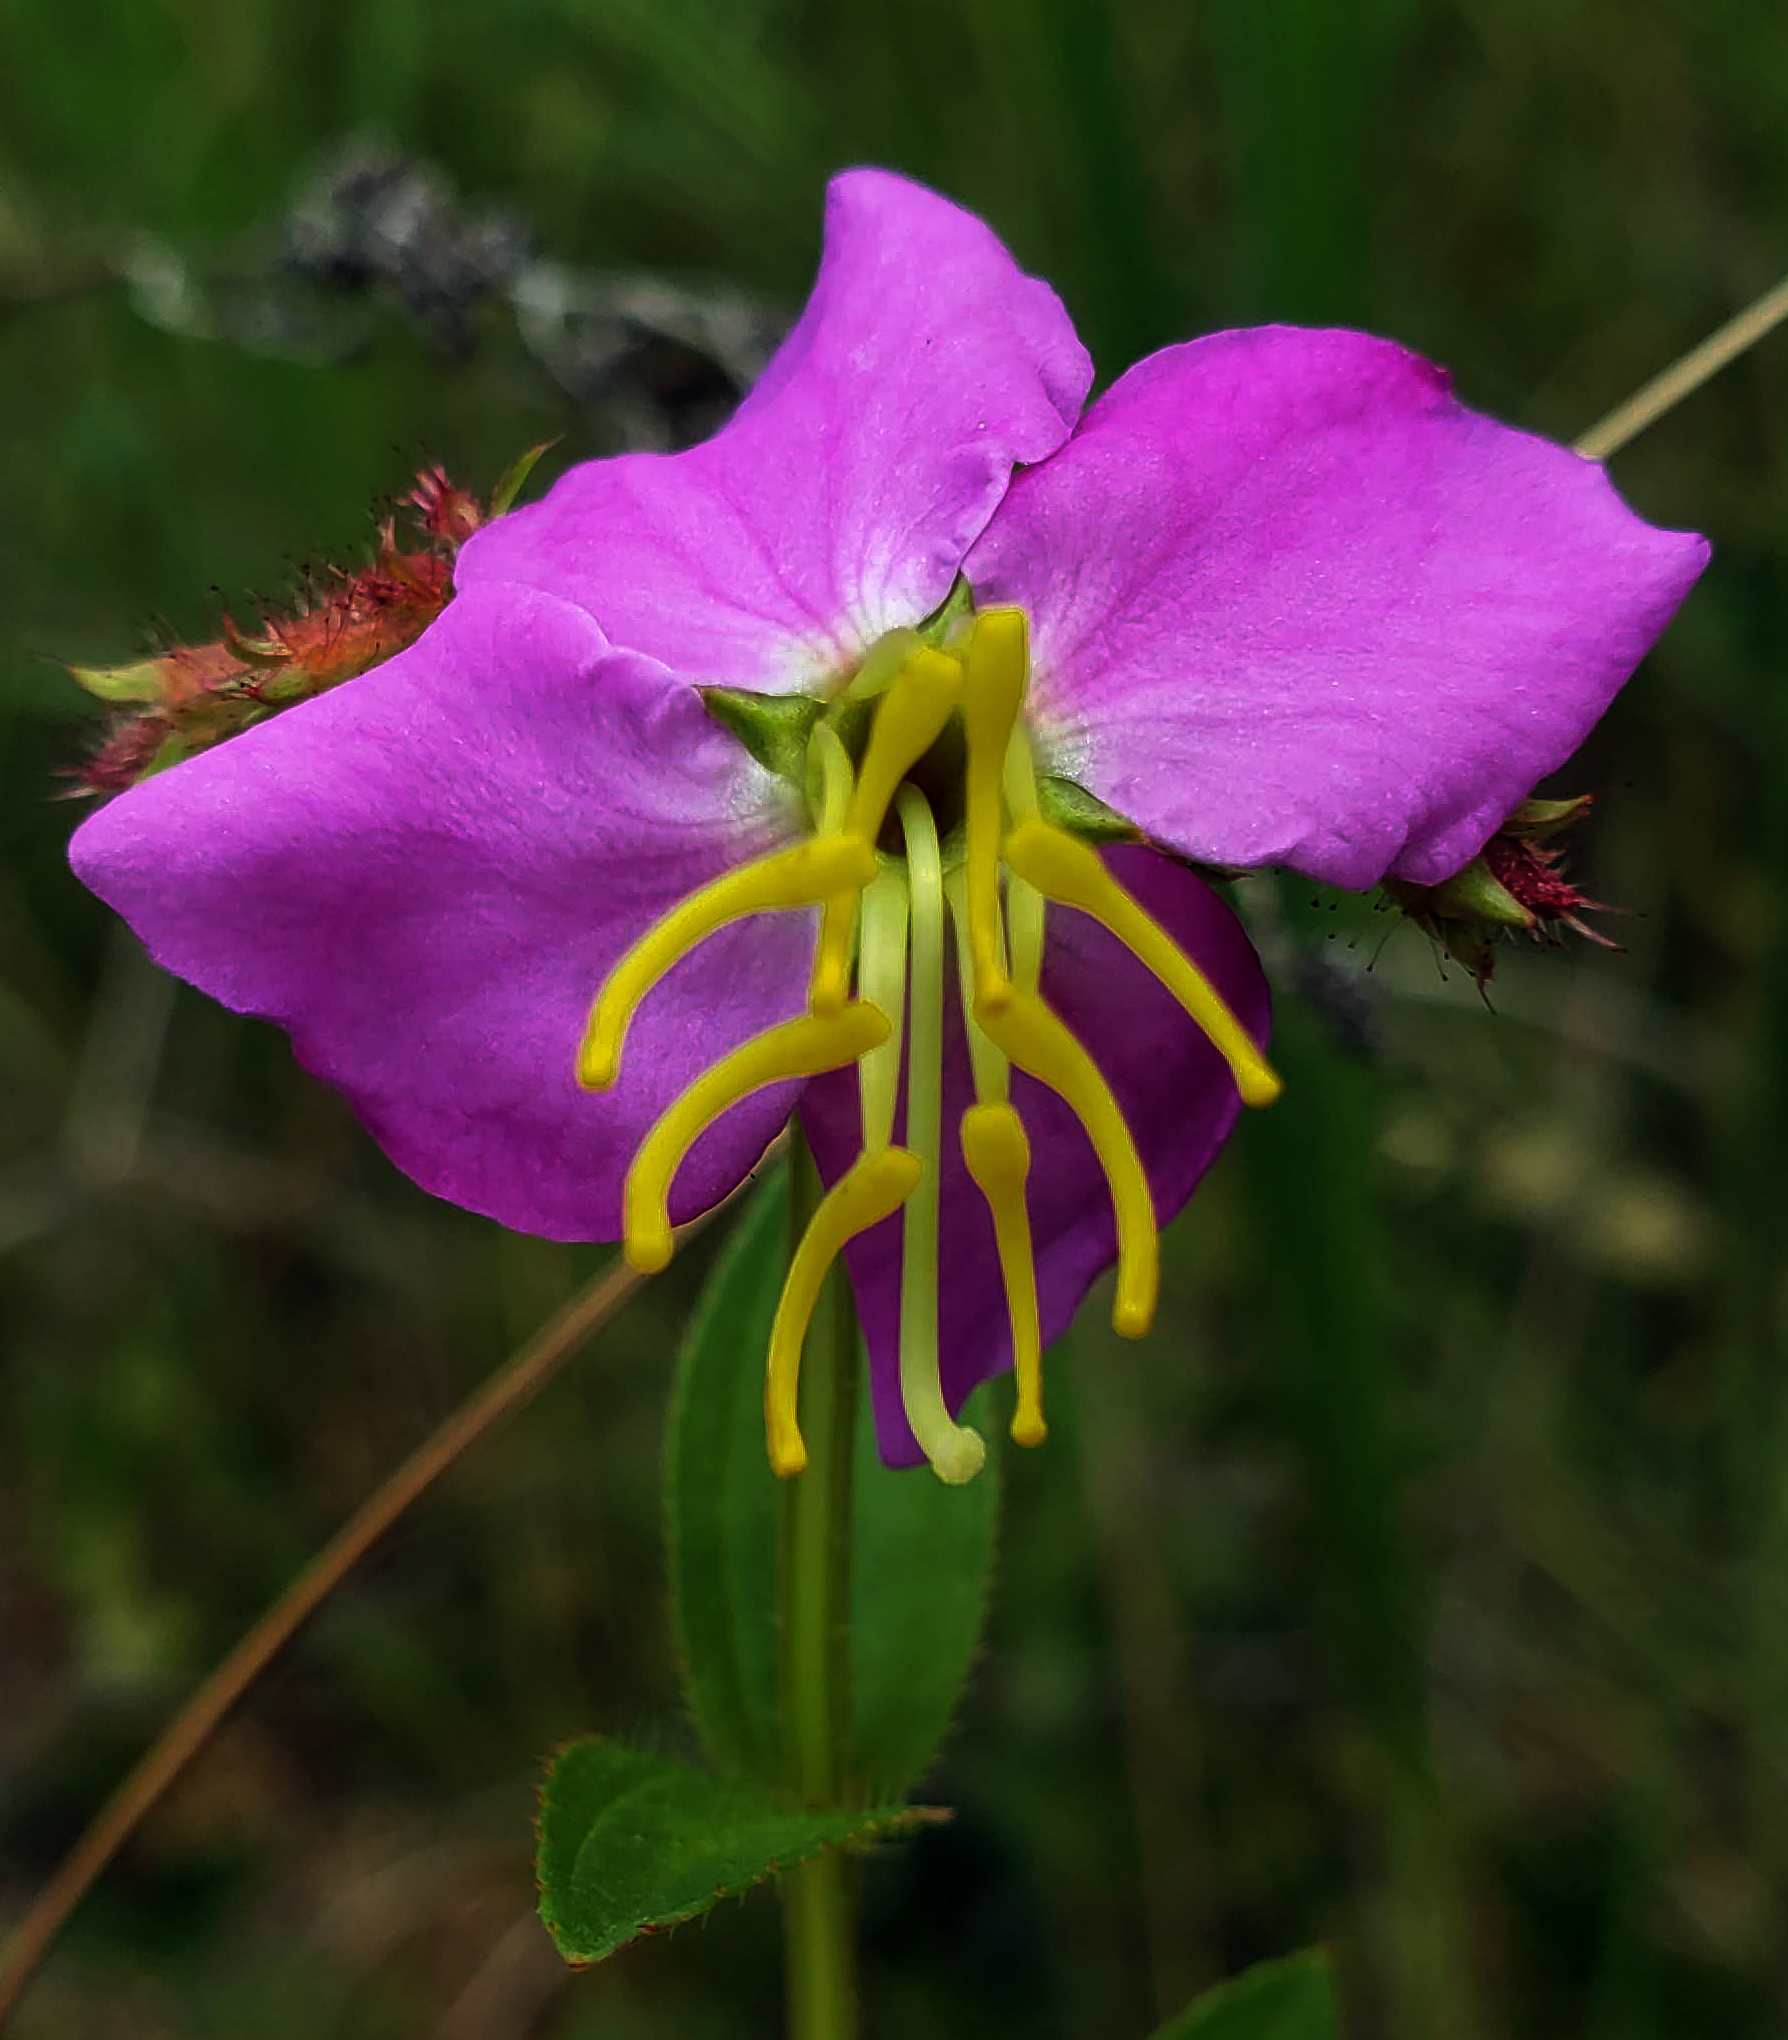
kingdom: Plantae
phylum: Tracheophyta
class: Magnoliopsida
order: Myrtales
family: Melastomataceae
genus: Rhexia
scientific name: Rhexia virginica
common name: Common meadow beauty
